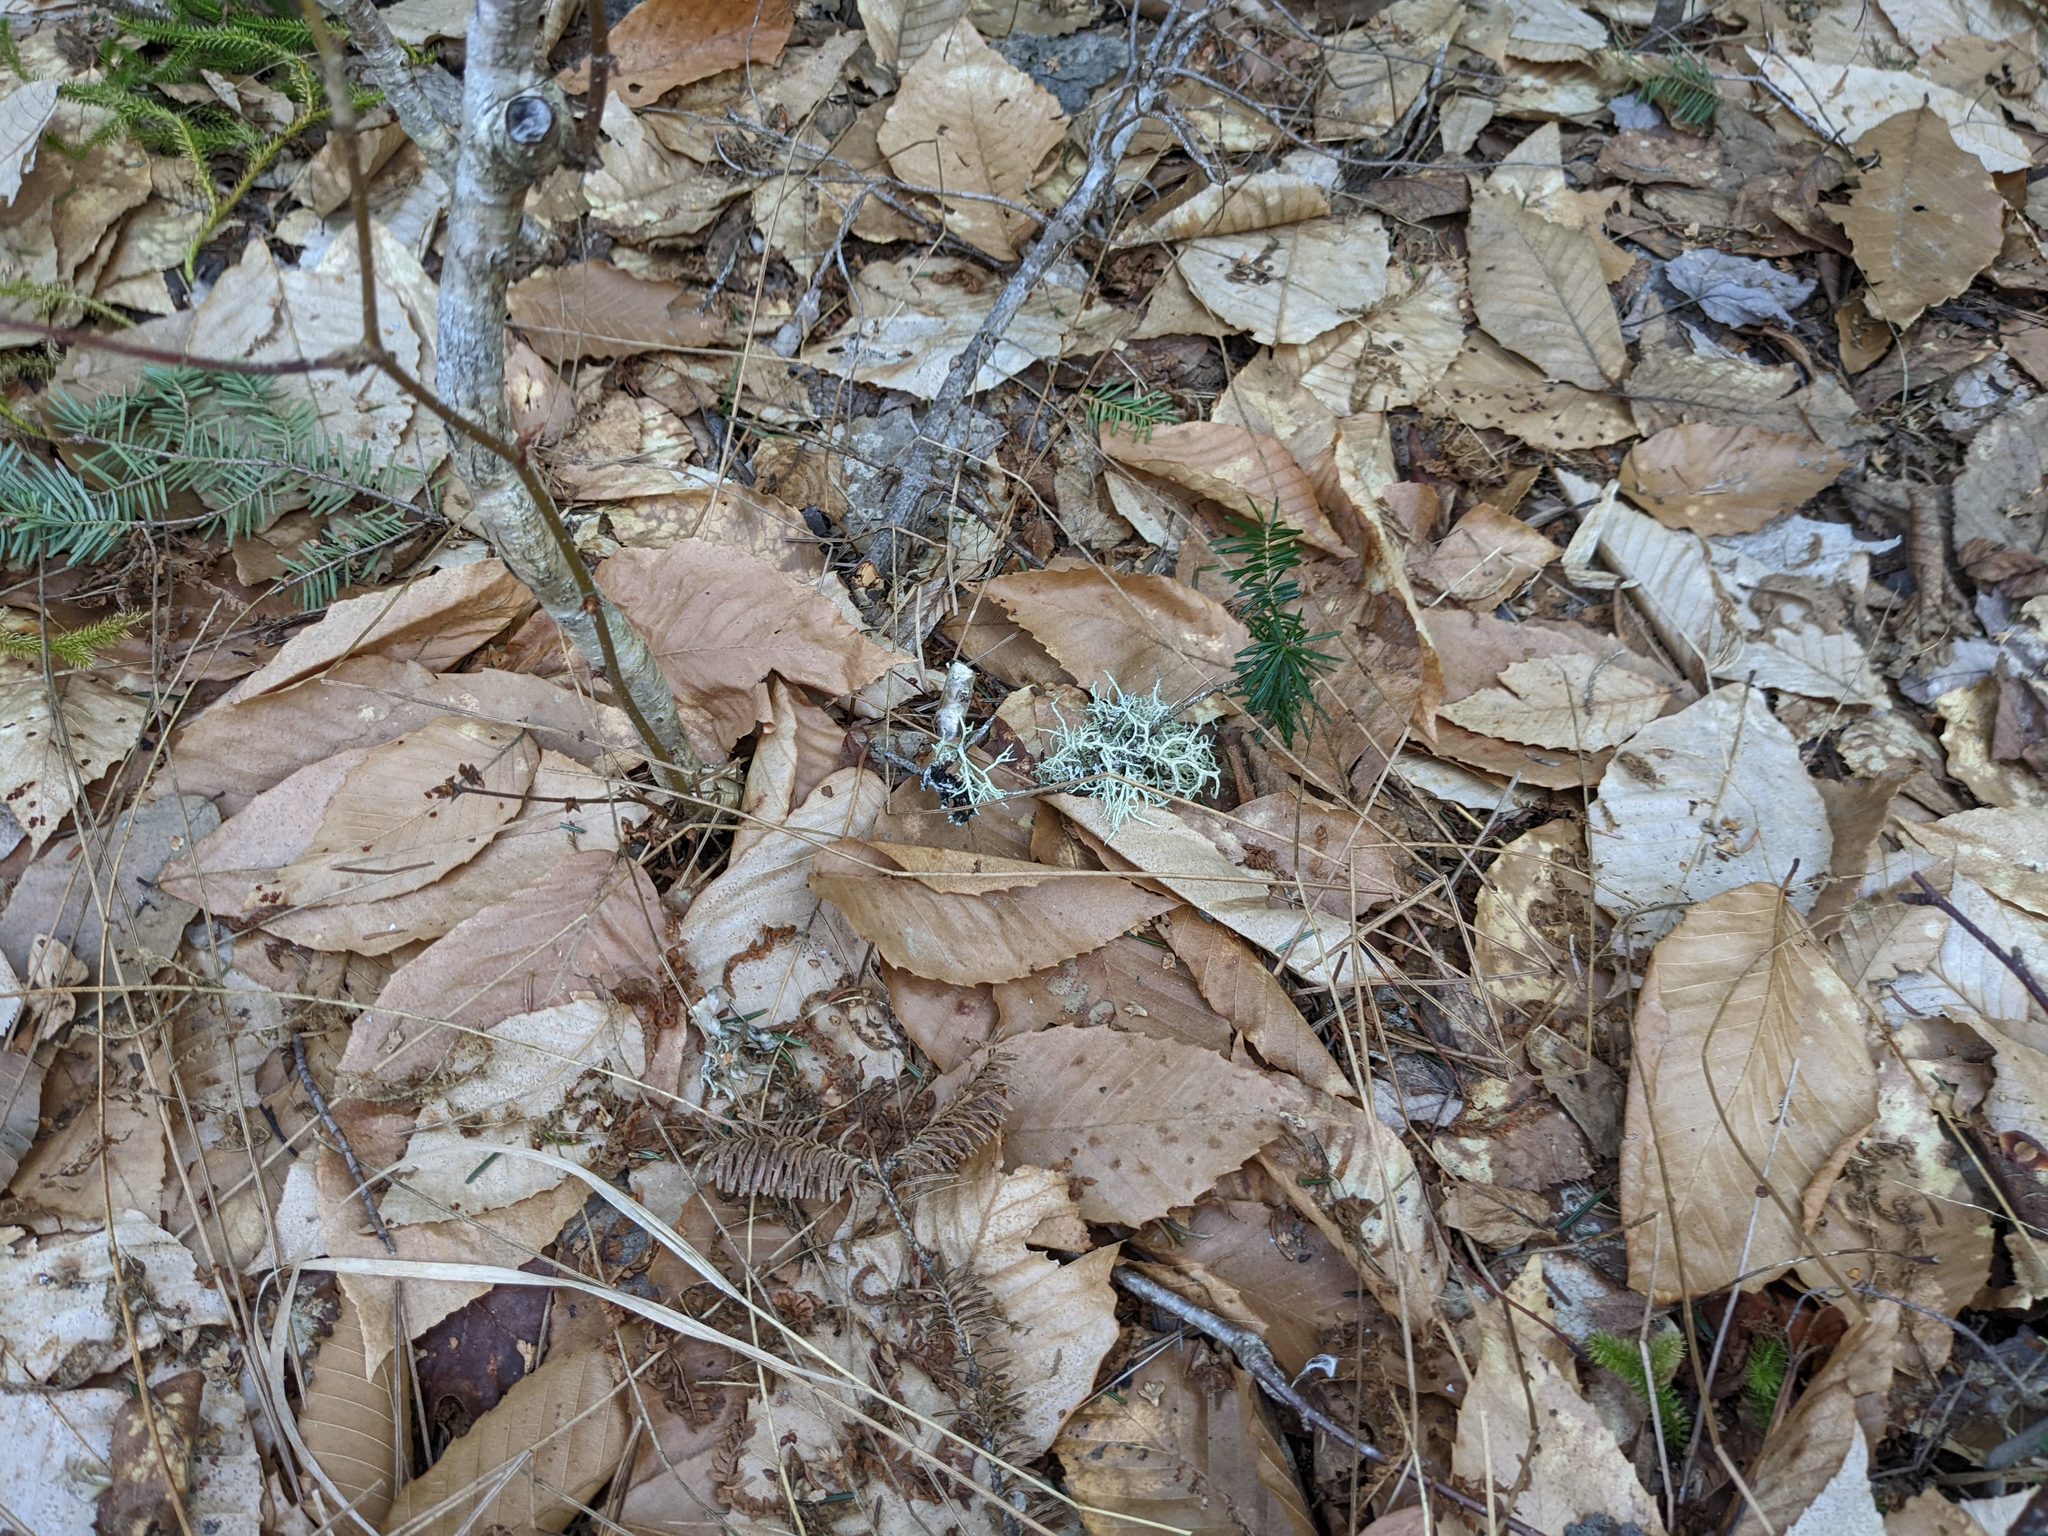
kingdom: Plantae
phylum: Tracheophyta
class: Magnoliopsida
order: Fagales
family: Fagaceae
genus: Fagus
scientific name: Fagus grandifolia
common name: American beech
